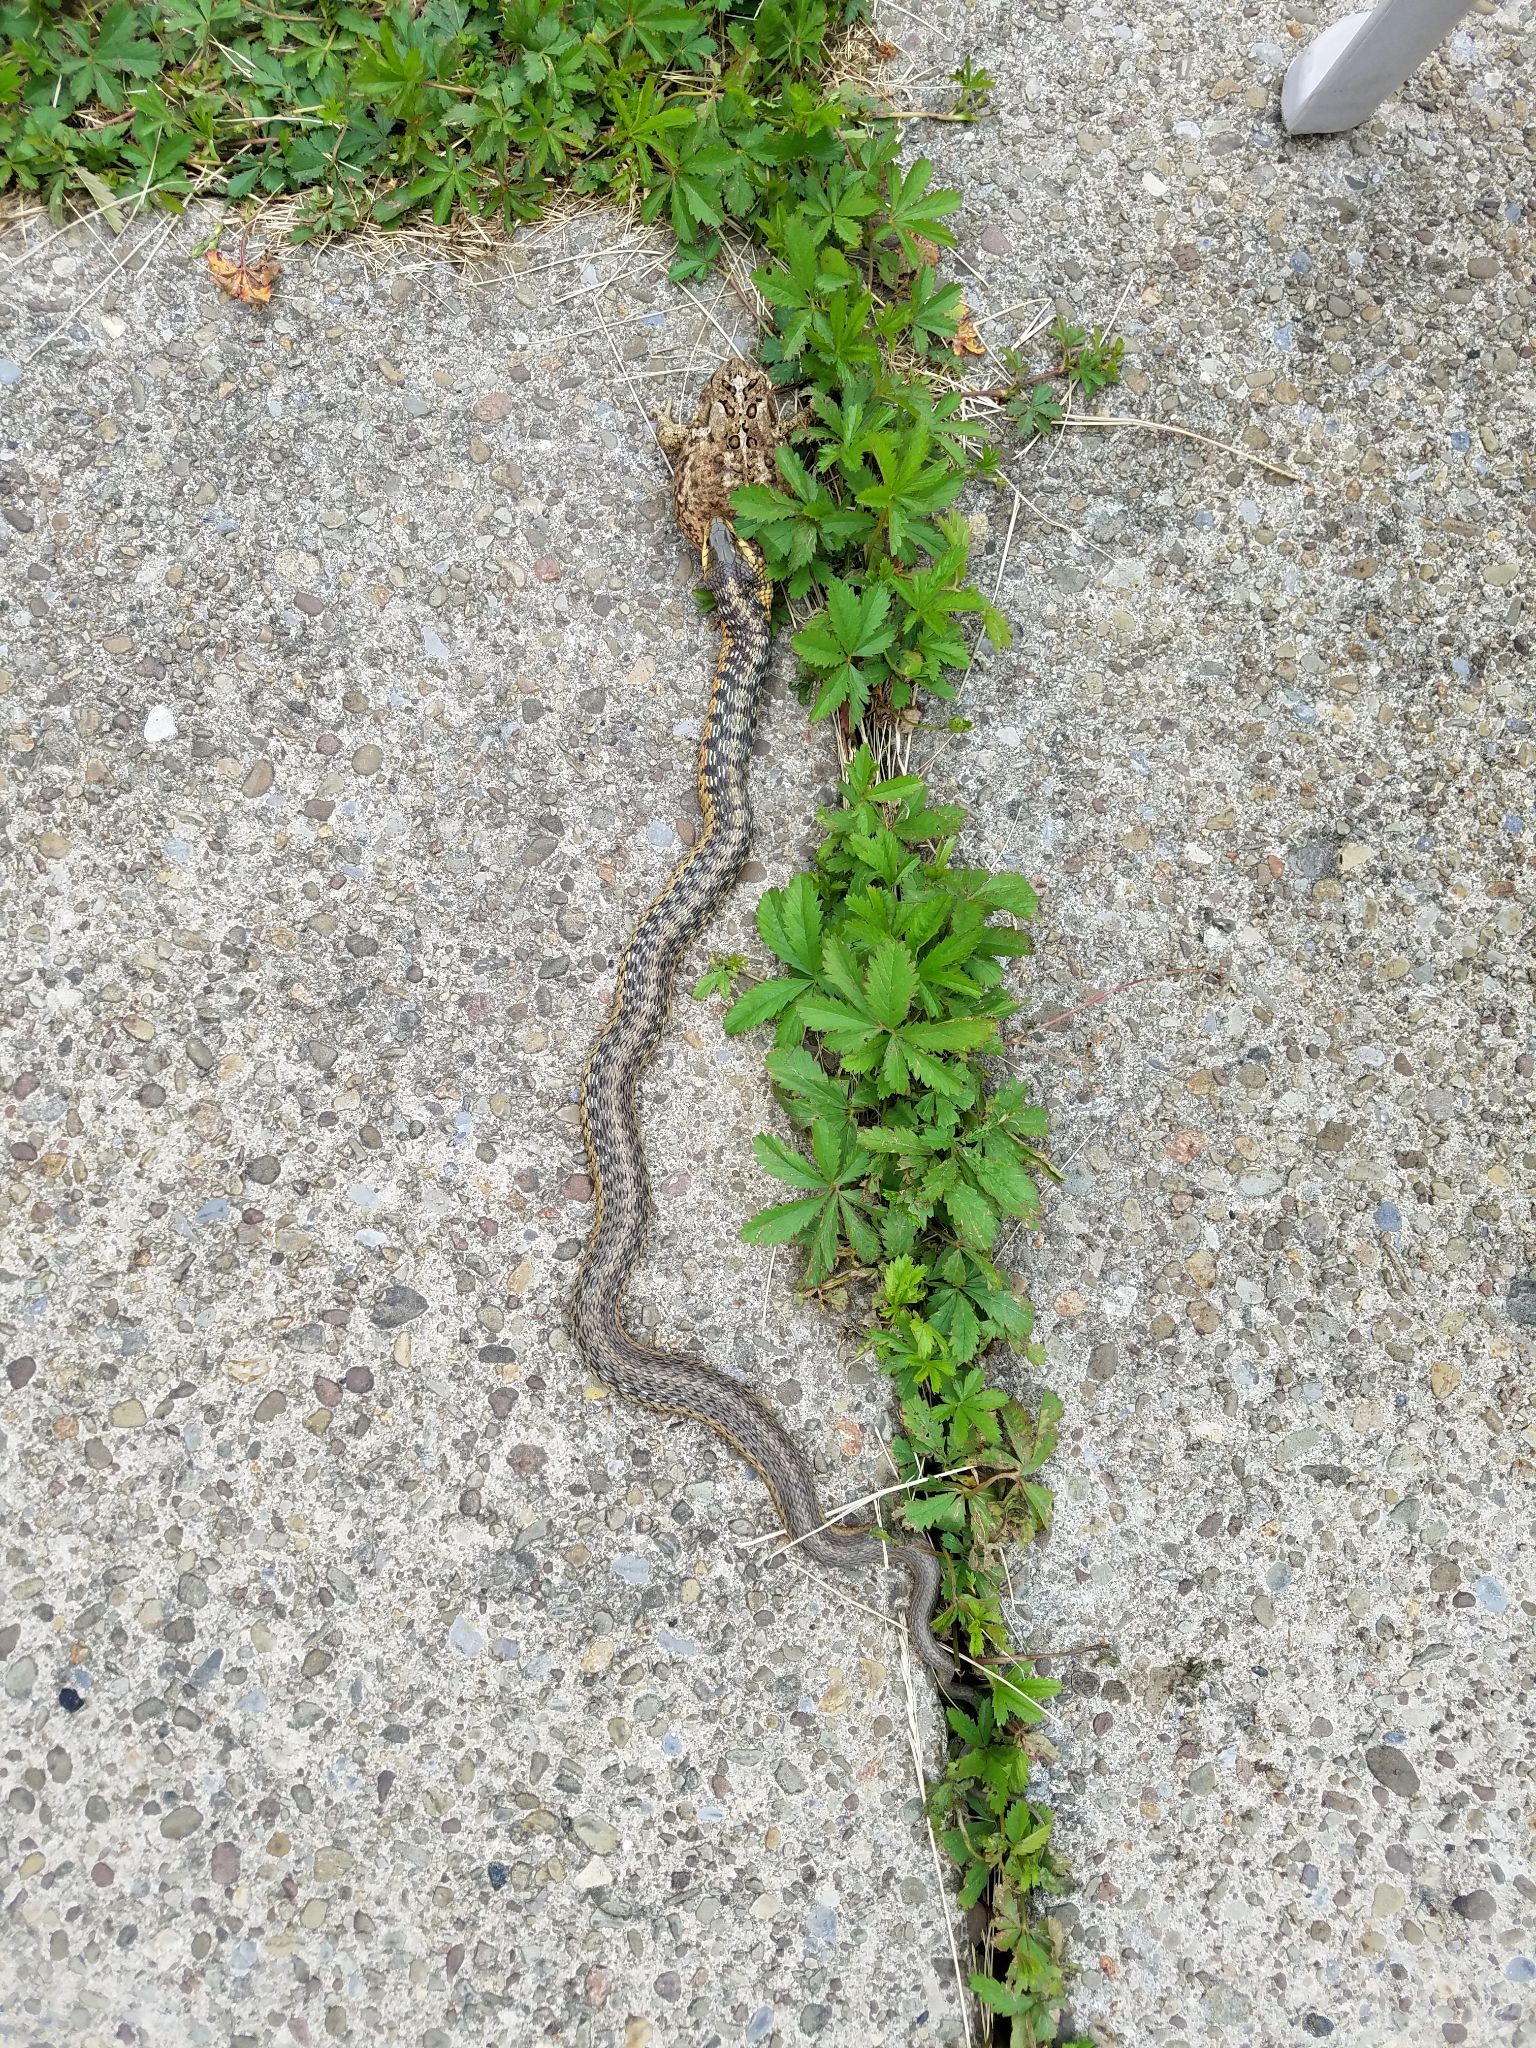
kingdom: Animalia
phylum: Chordata
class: Squamata
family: Colubridae
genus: Thamnophis
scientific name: Thamnophis sirtalis
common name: Common garter snake
